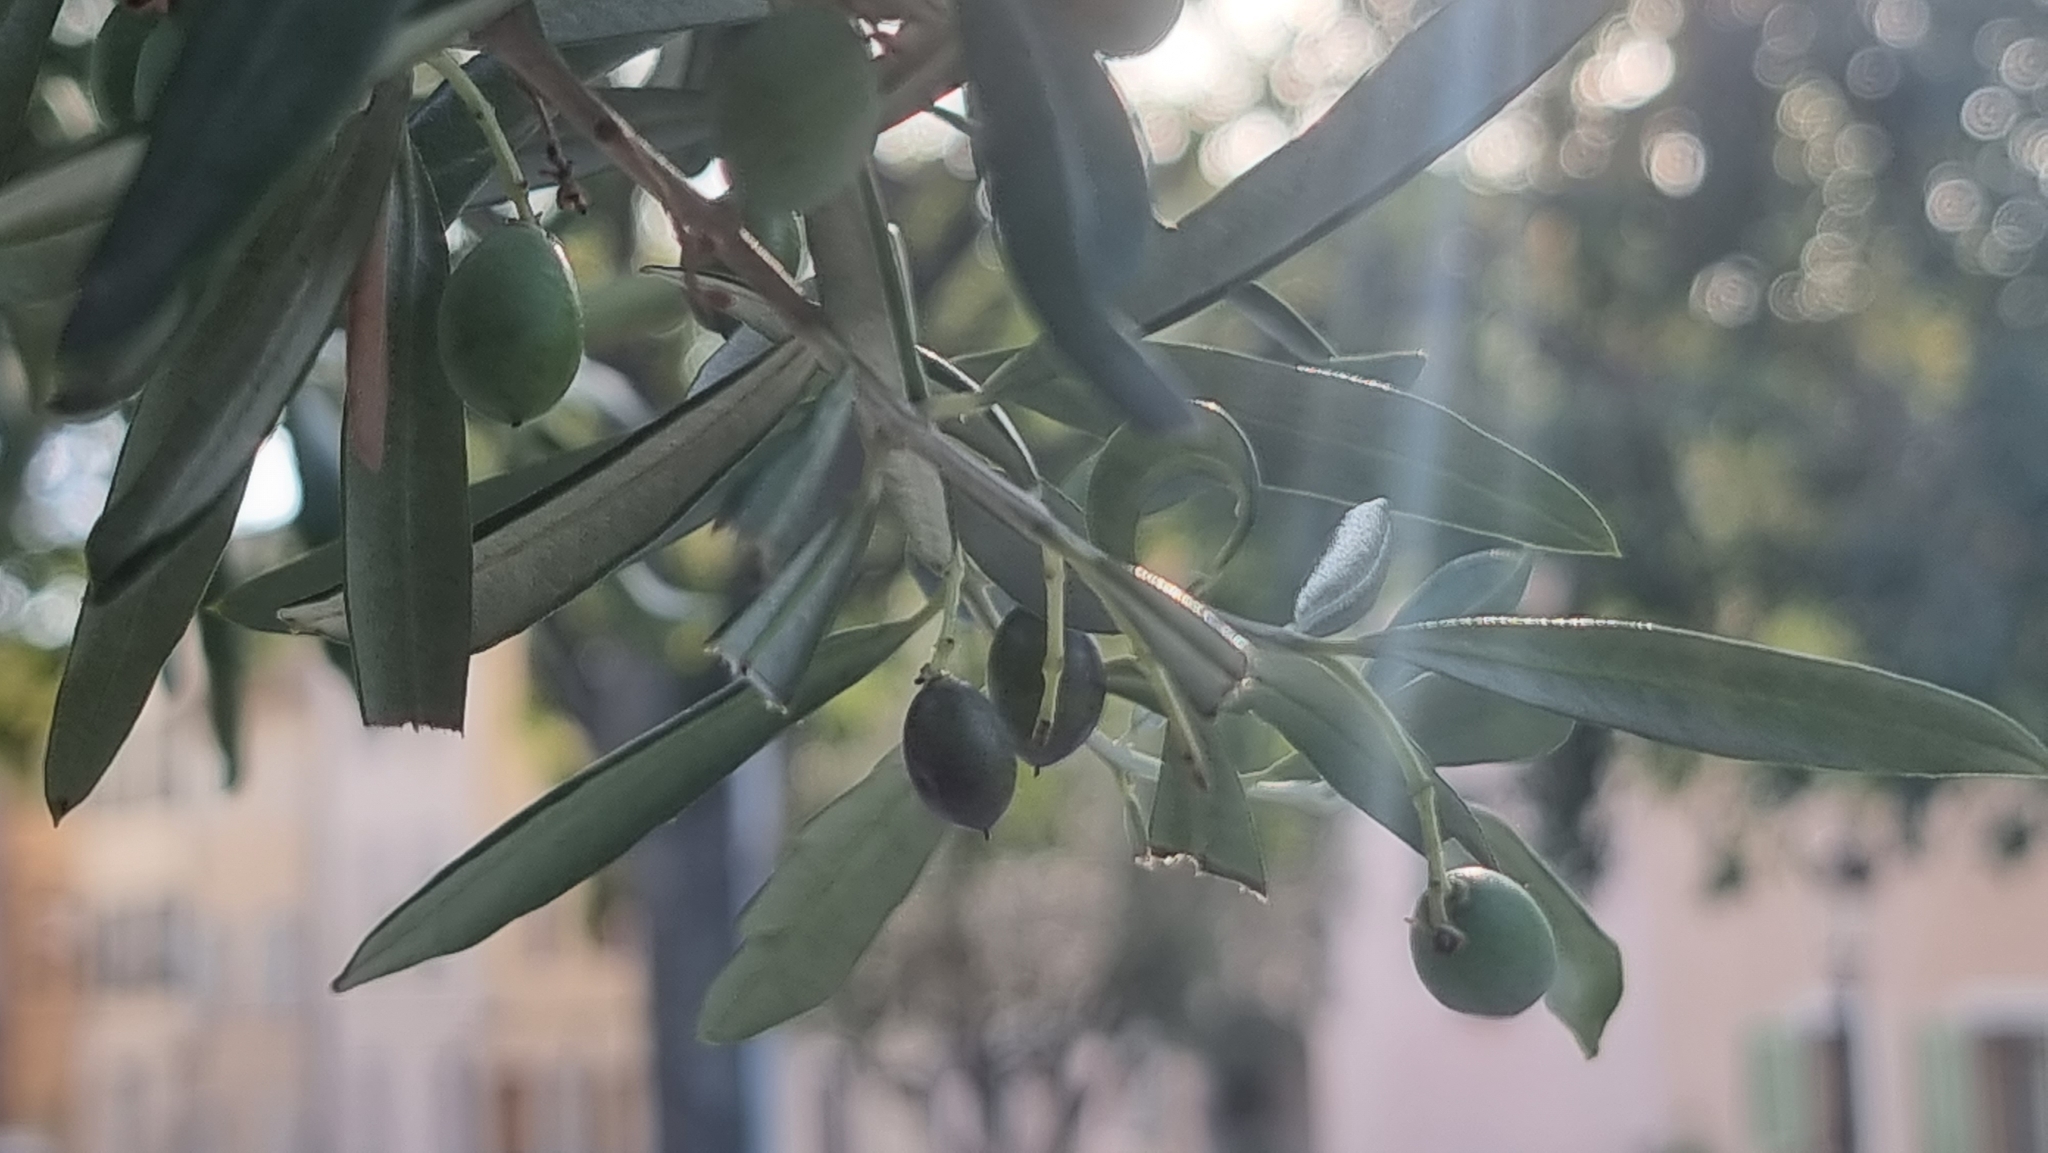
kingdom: Plantae
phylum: Tracheophyta
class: Magnoliopsida
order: Lamiales
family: Oleaceae
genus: Olea
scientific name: Olea europaea
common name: Olive
